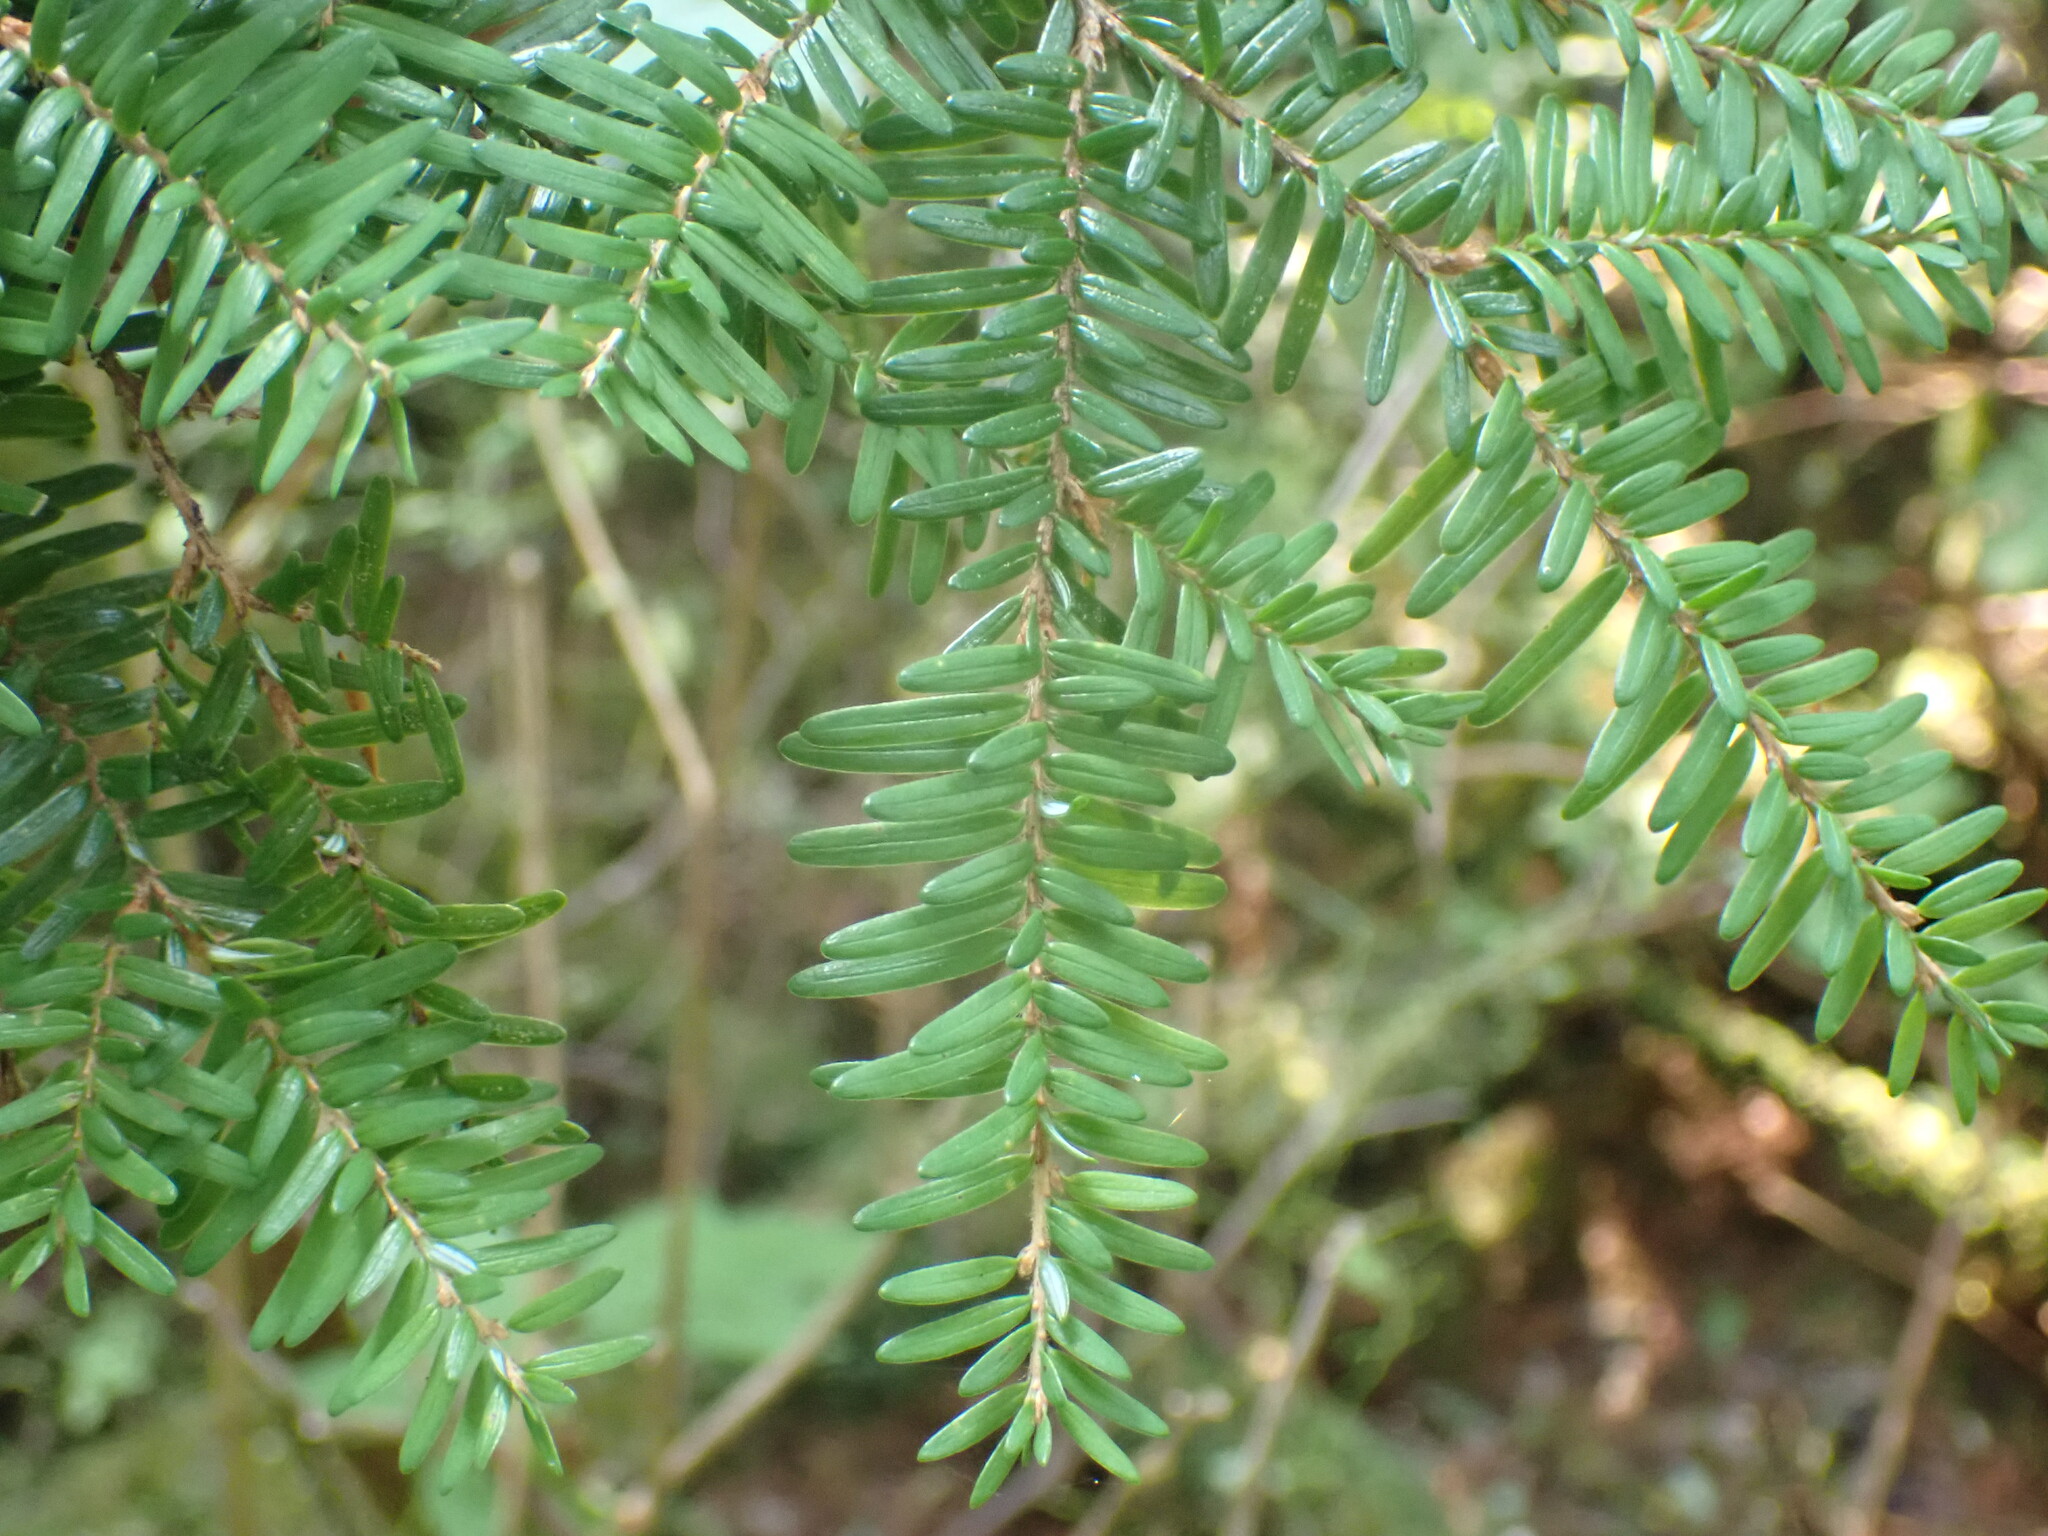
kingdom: Plantae
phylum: Tracheophyta
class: Pinopsida
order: Pinales
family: Pinaceae
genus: Tsuga
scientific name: Tsuga heterophylla
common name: Western hemlock
